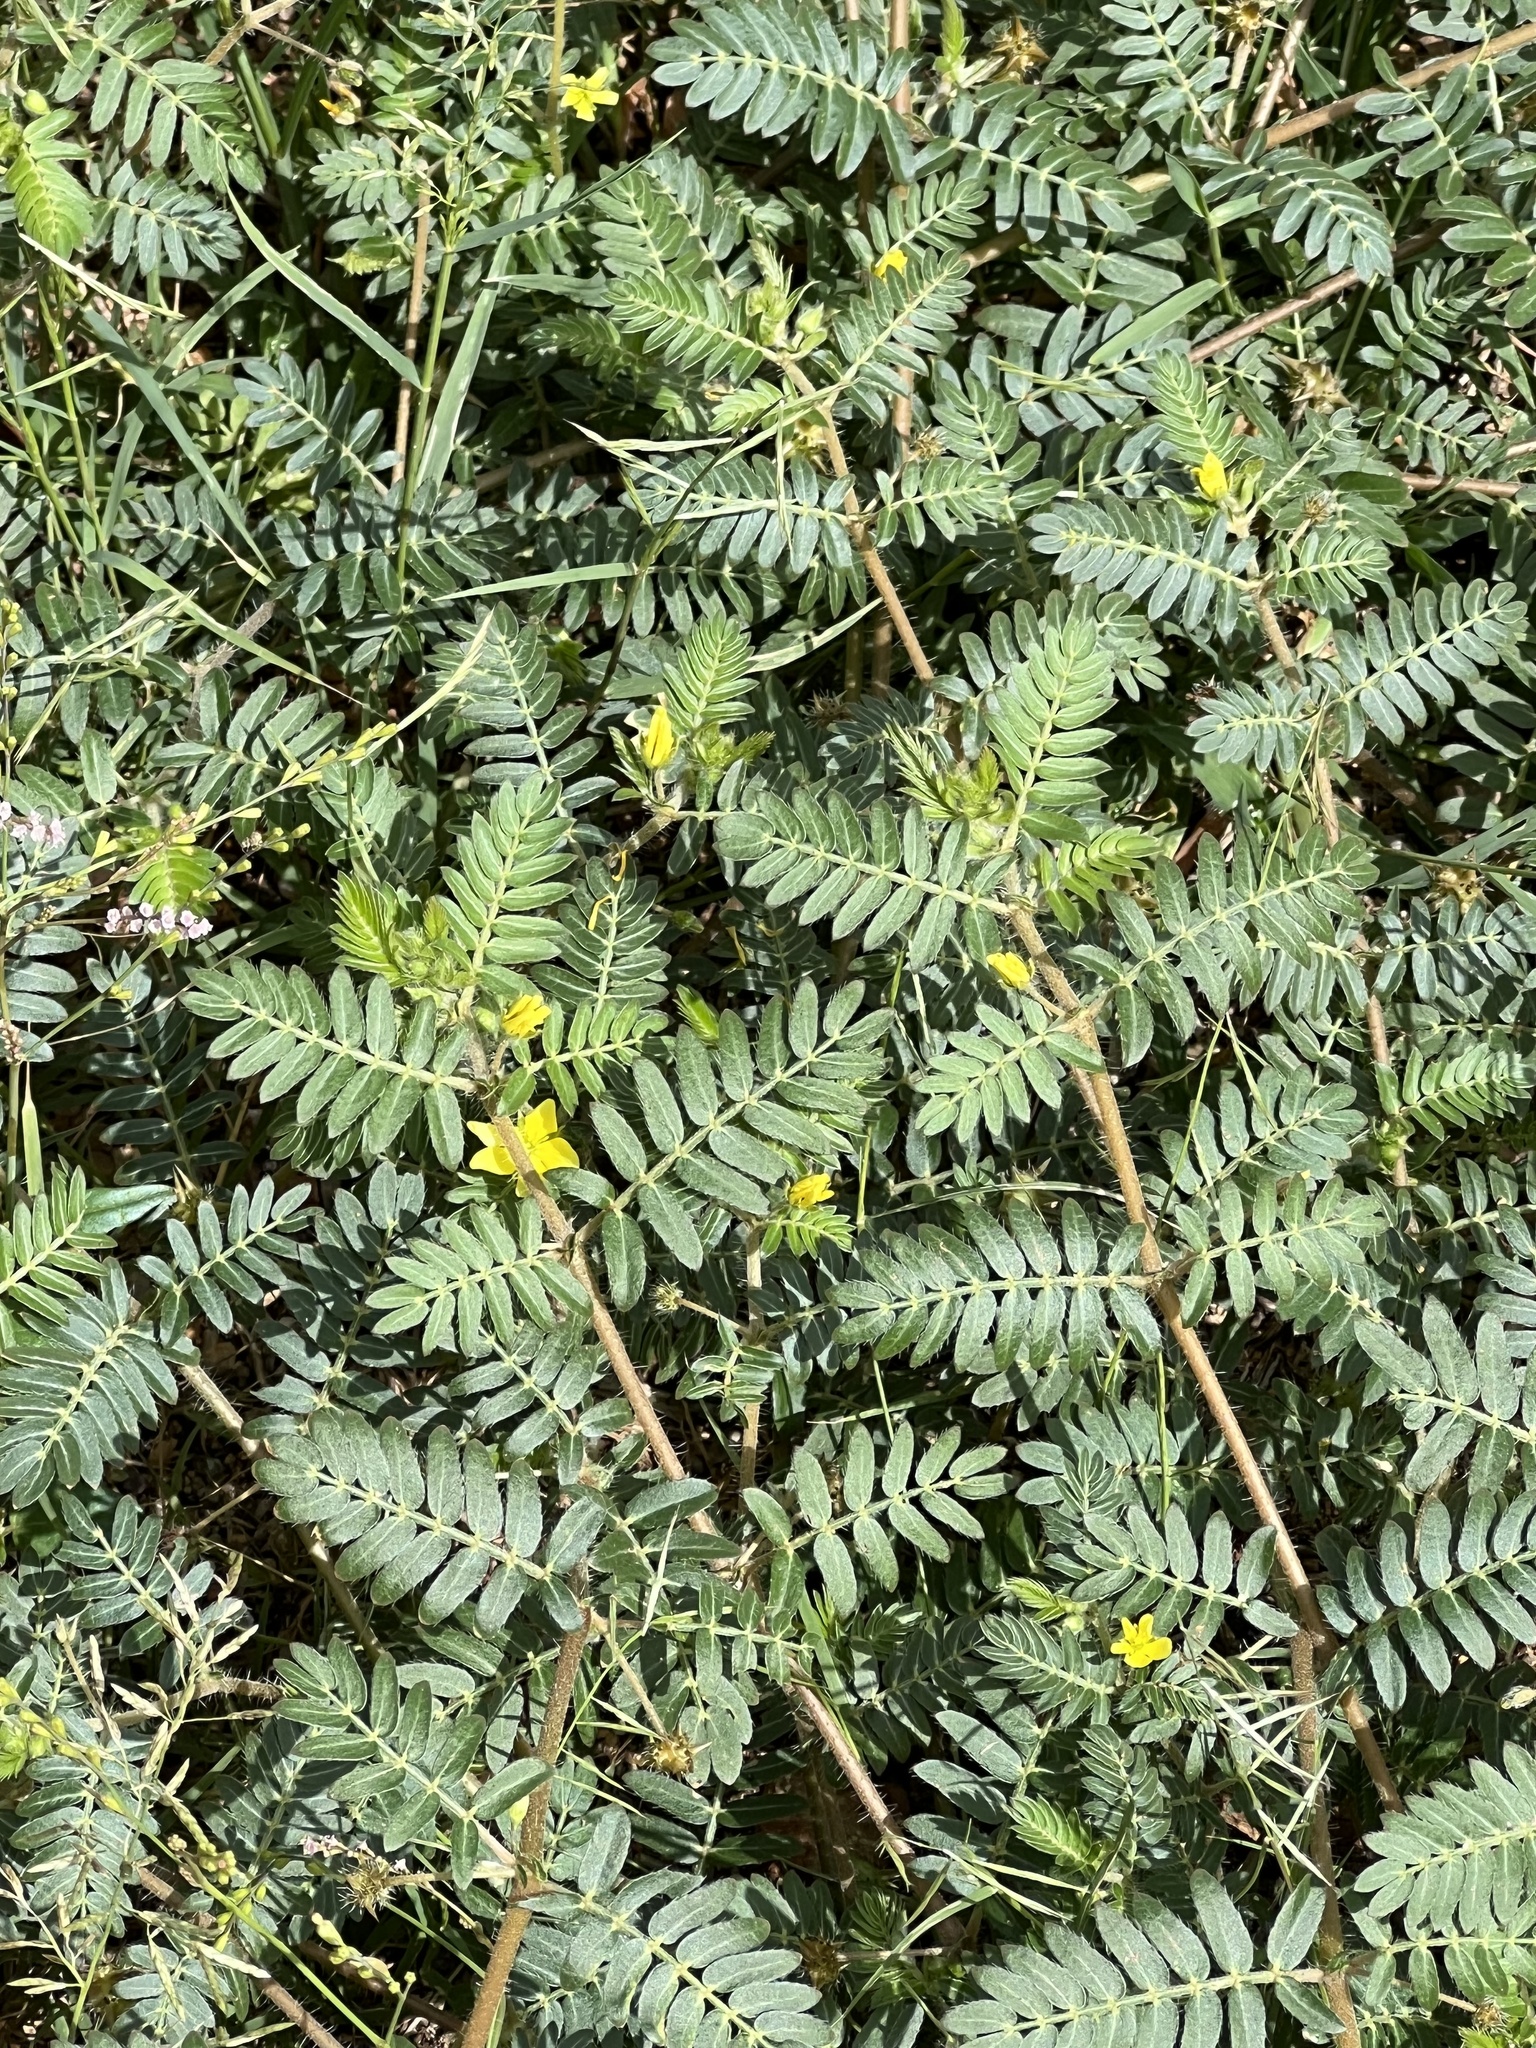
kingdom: Plantae
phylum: Tracheophyta
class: Magnoliopsida
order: Zygophyllales
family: Zygophyllaceae
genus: Tribulus
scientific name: Tribulus terrestris
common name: Puncturevine
